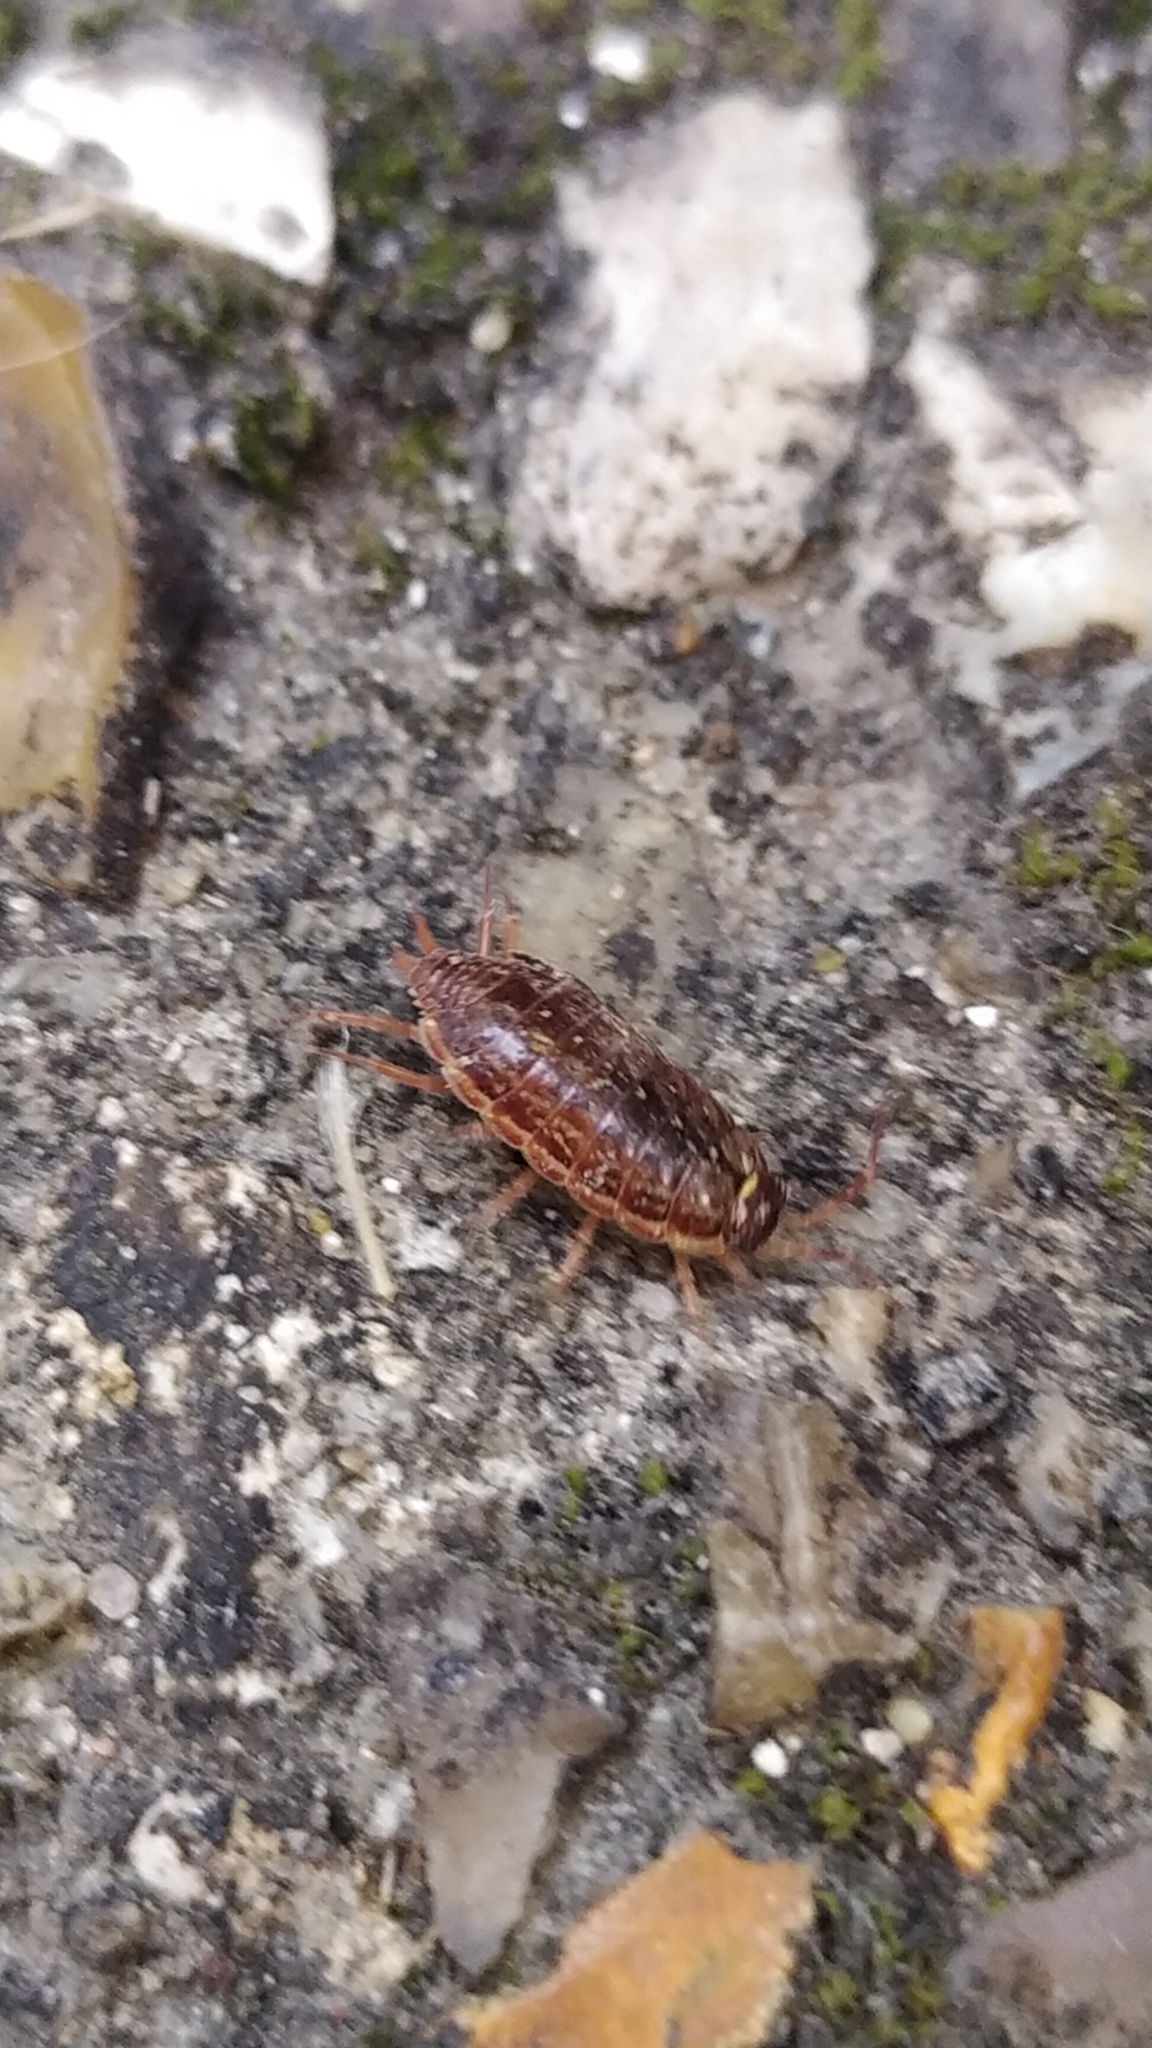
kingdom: Animalia
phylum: Arthropoda
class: Malacostraca
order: Isopoda
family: Philosciidae
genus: Philoscia
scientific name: Philoscia muscorum
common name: Common striped woodlouse
